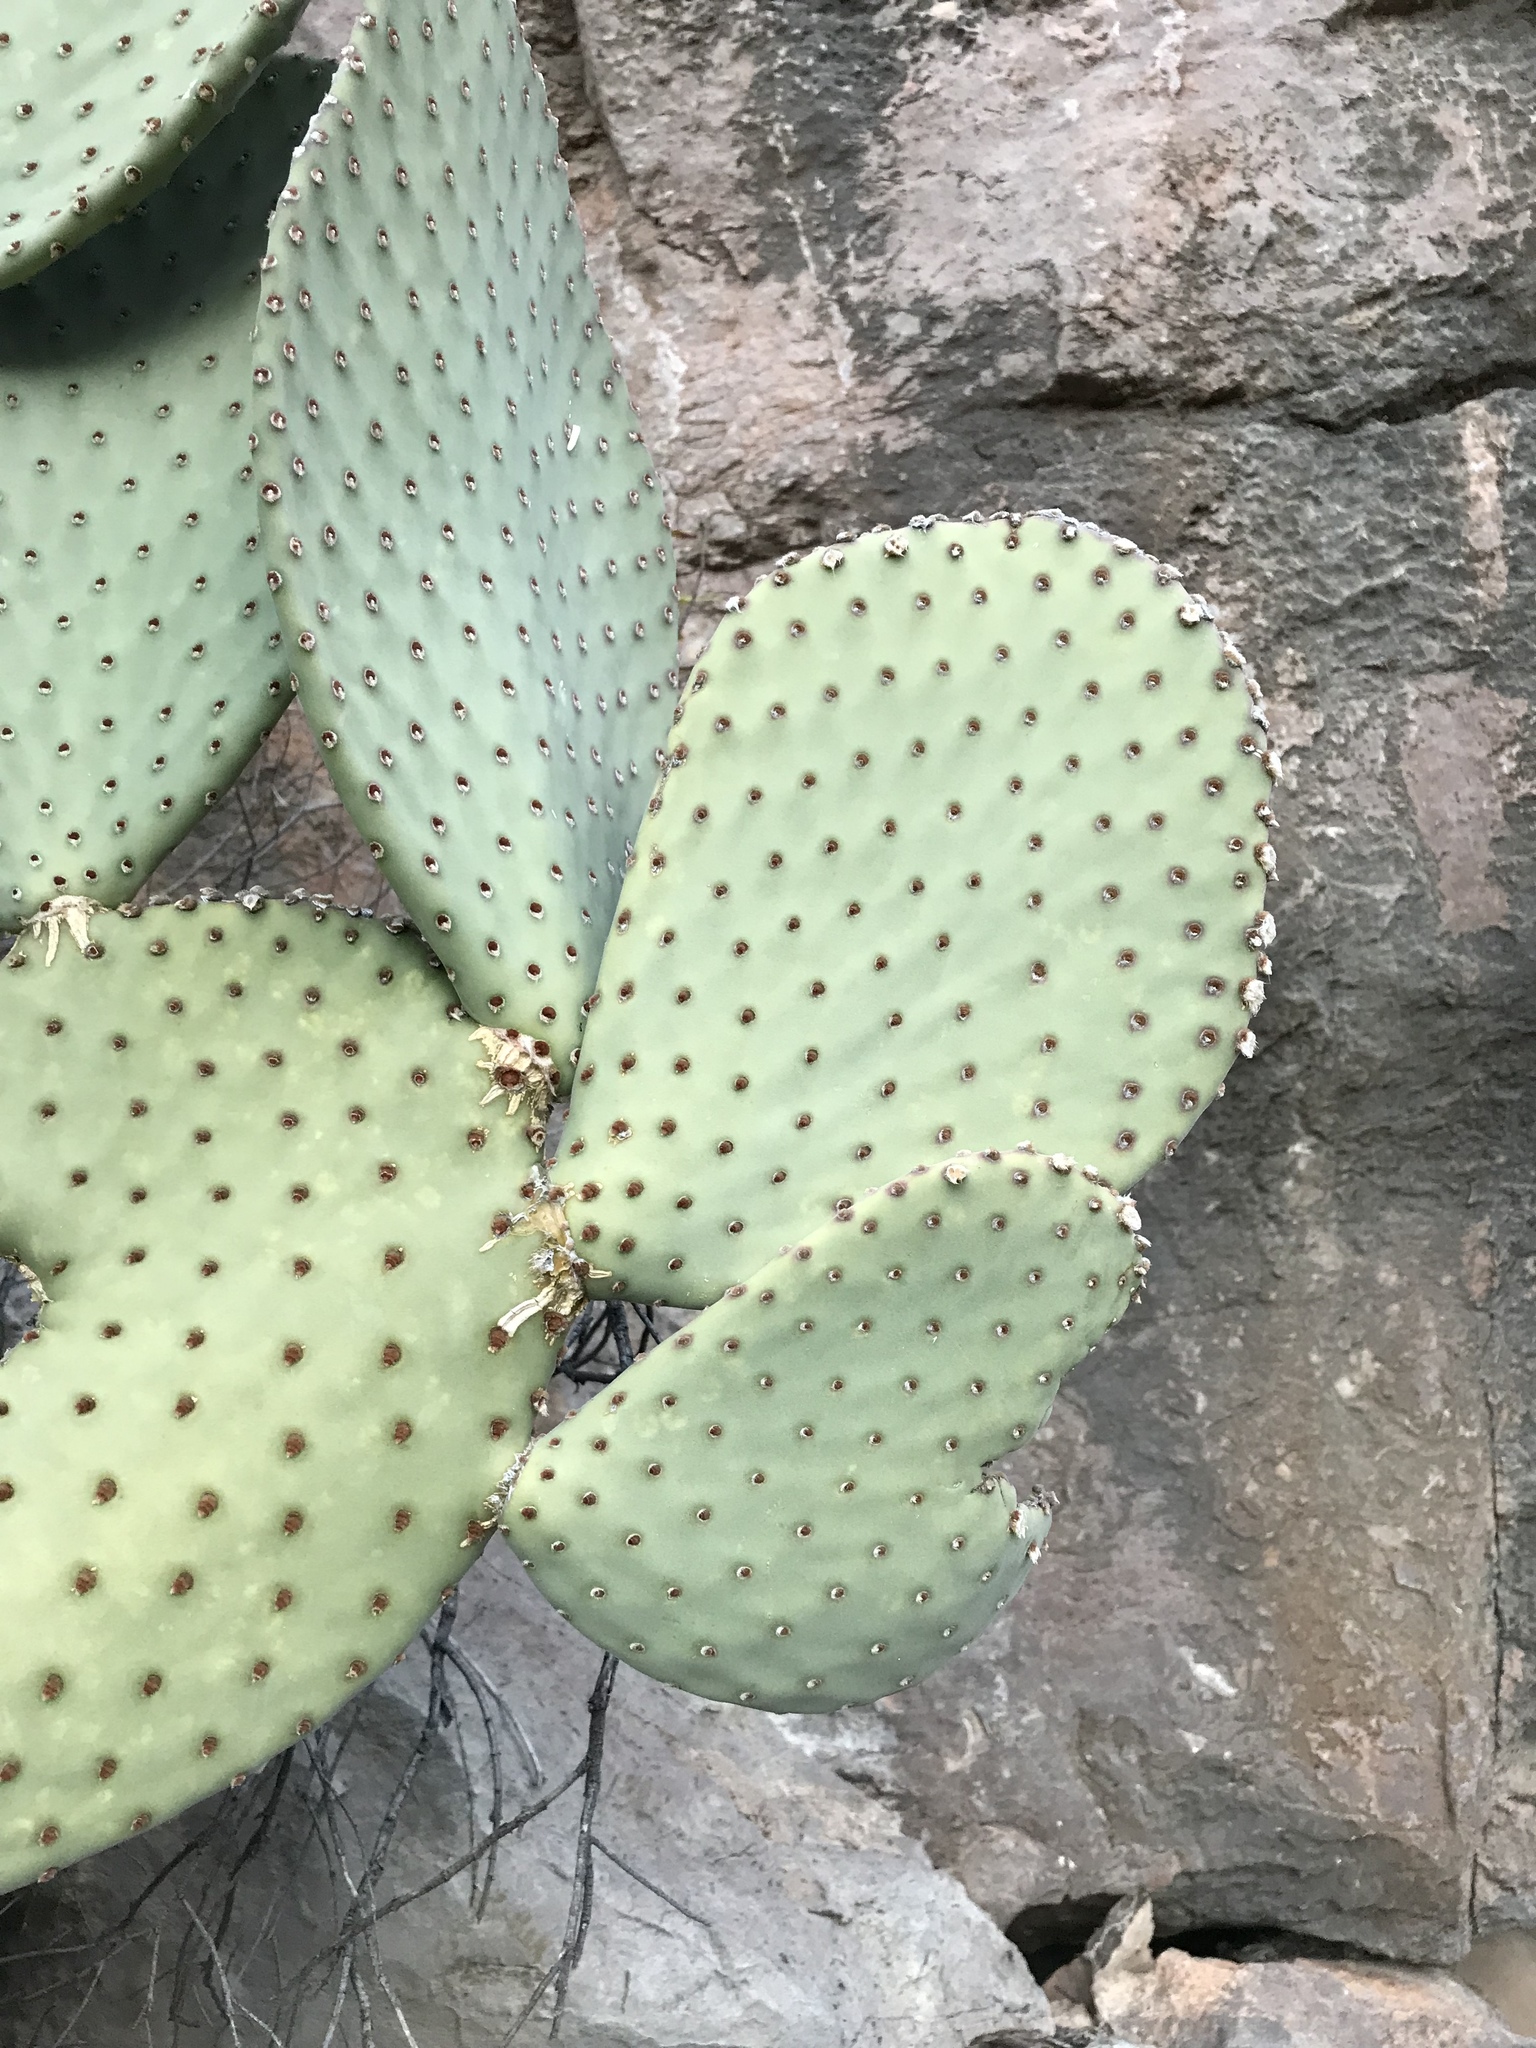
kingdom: Plantae
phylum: Tracheophyta
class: Magnoliopsida
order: Caryophyllales
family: Cactaceae
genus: Opuntia
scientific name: Opuntia rufida
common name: Blind pricklypear
